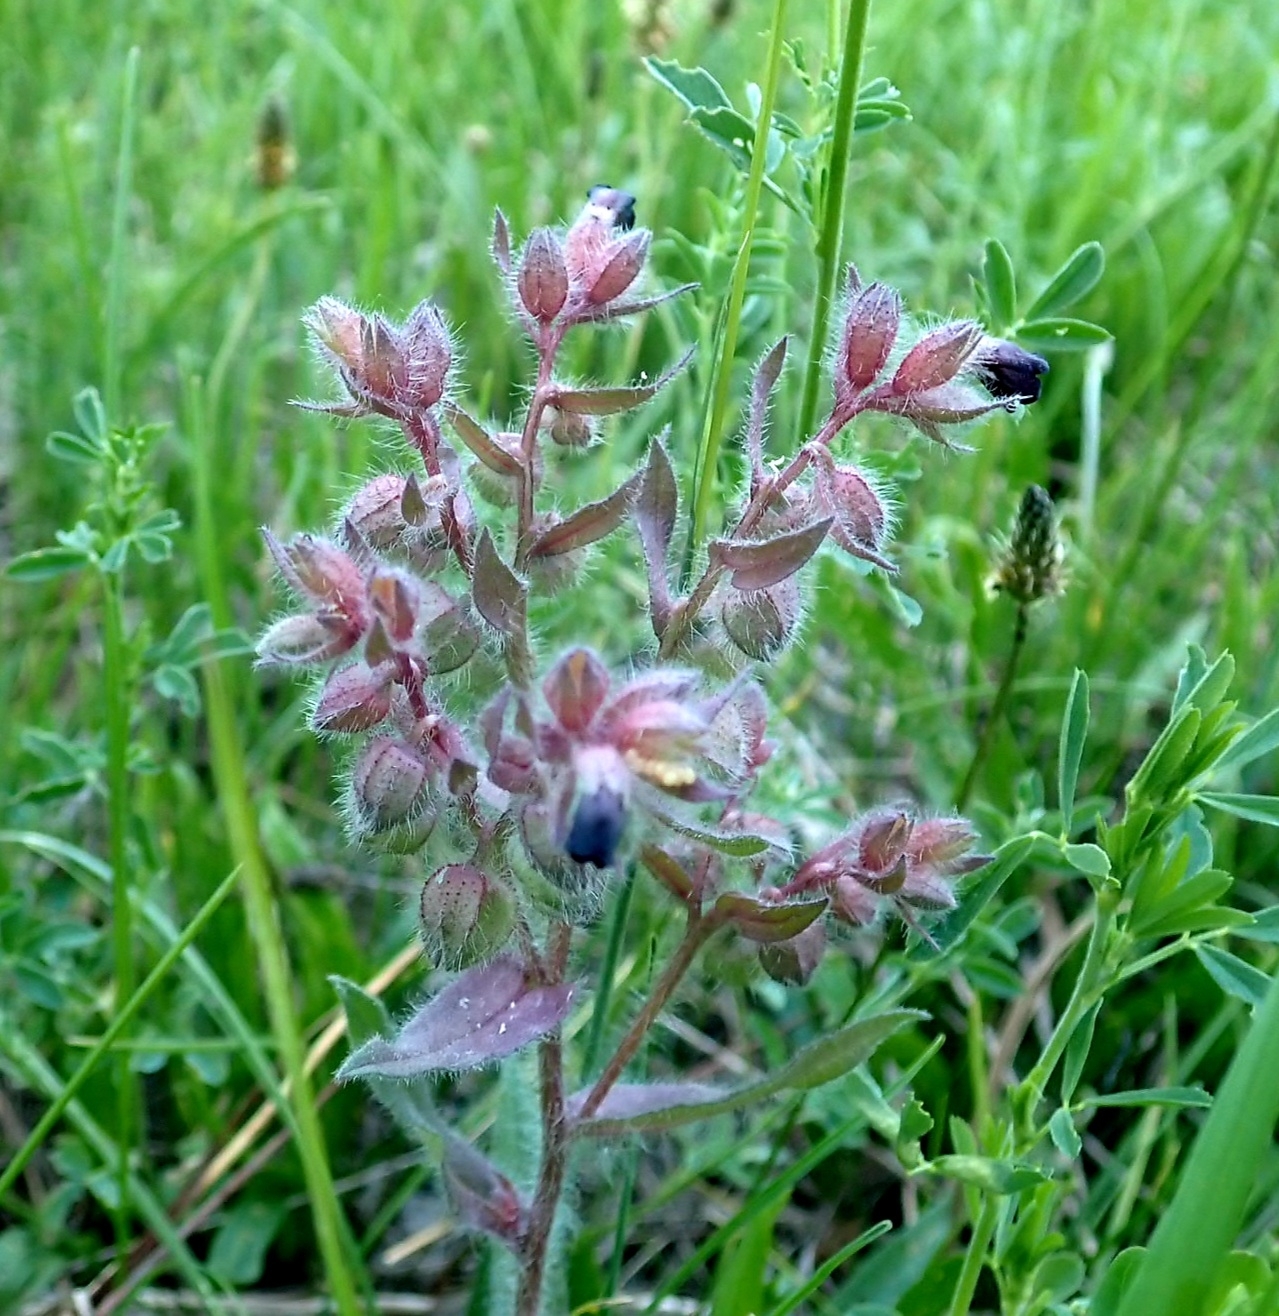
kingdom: Plantae
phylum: Tracheophyta
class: Magnoliopsida
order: Boraginales
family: Boraginaceae
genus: Nonea
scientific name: Nonea pulla
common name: Brown nonea
